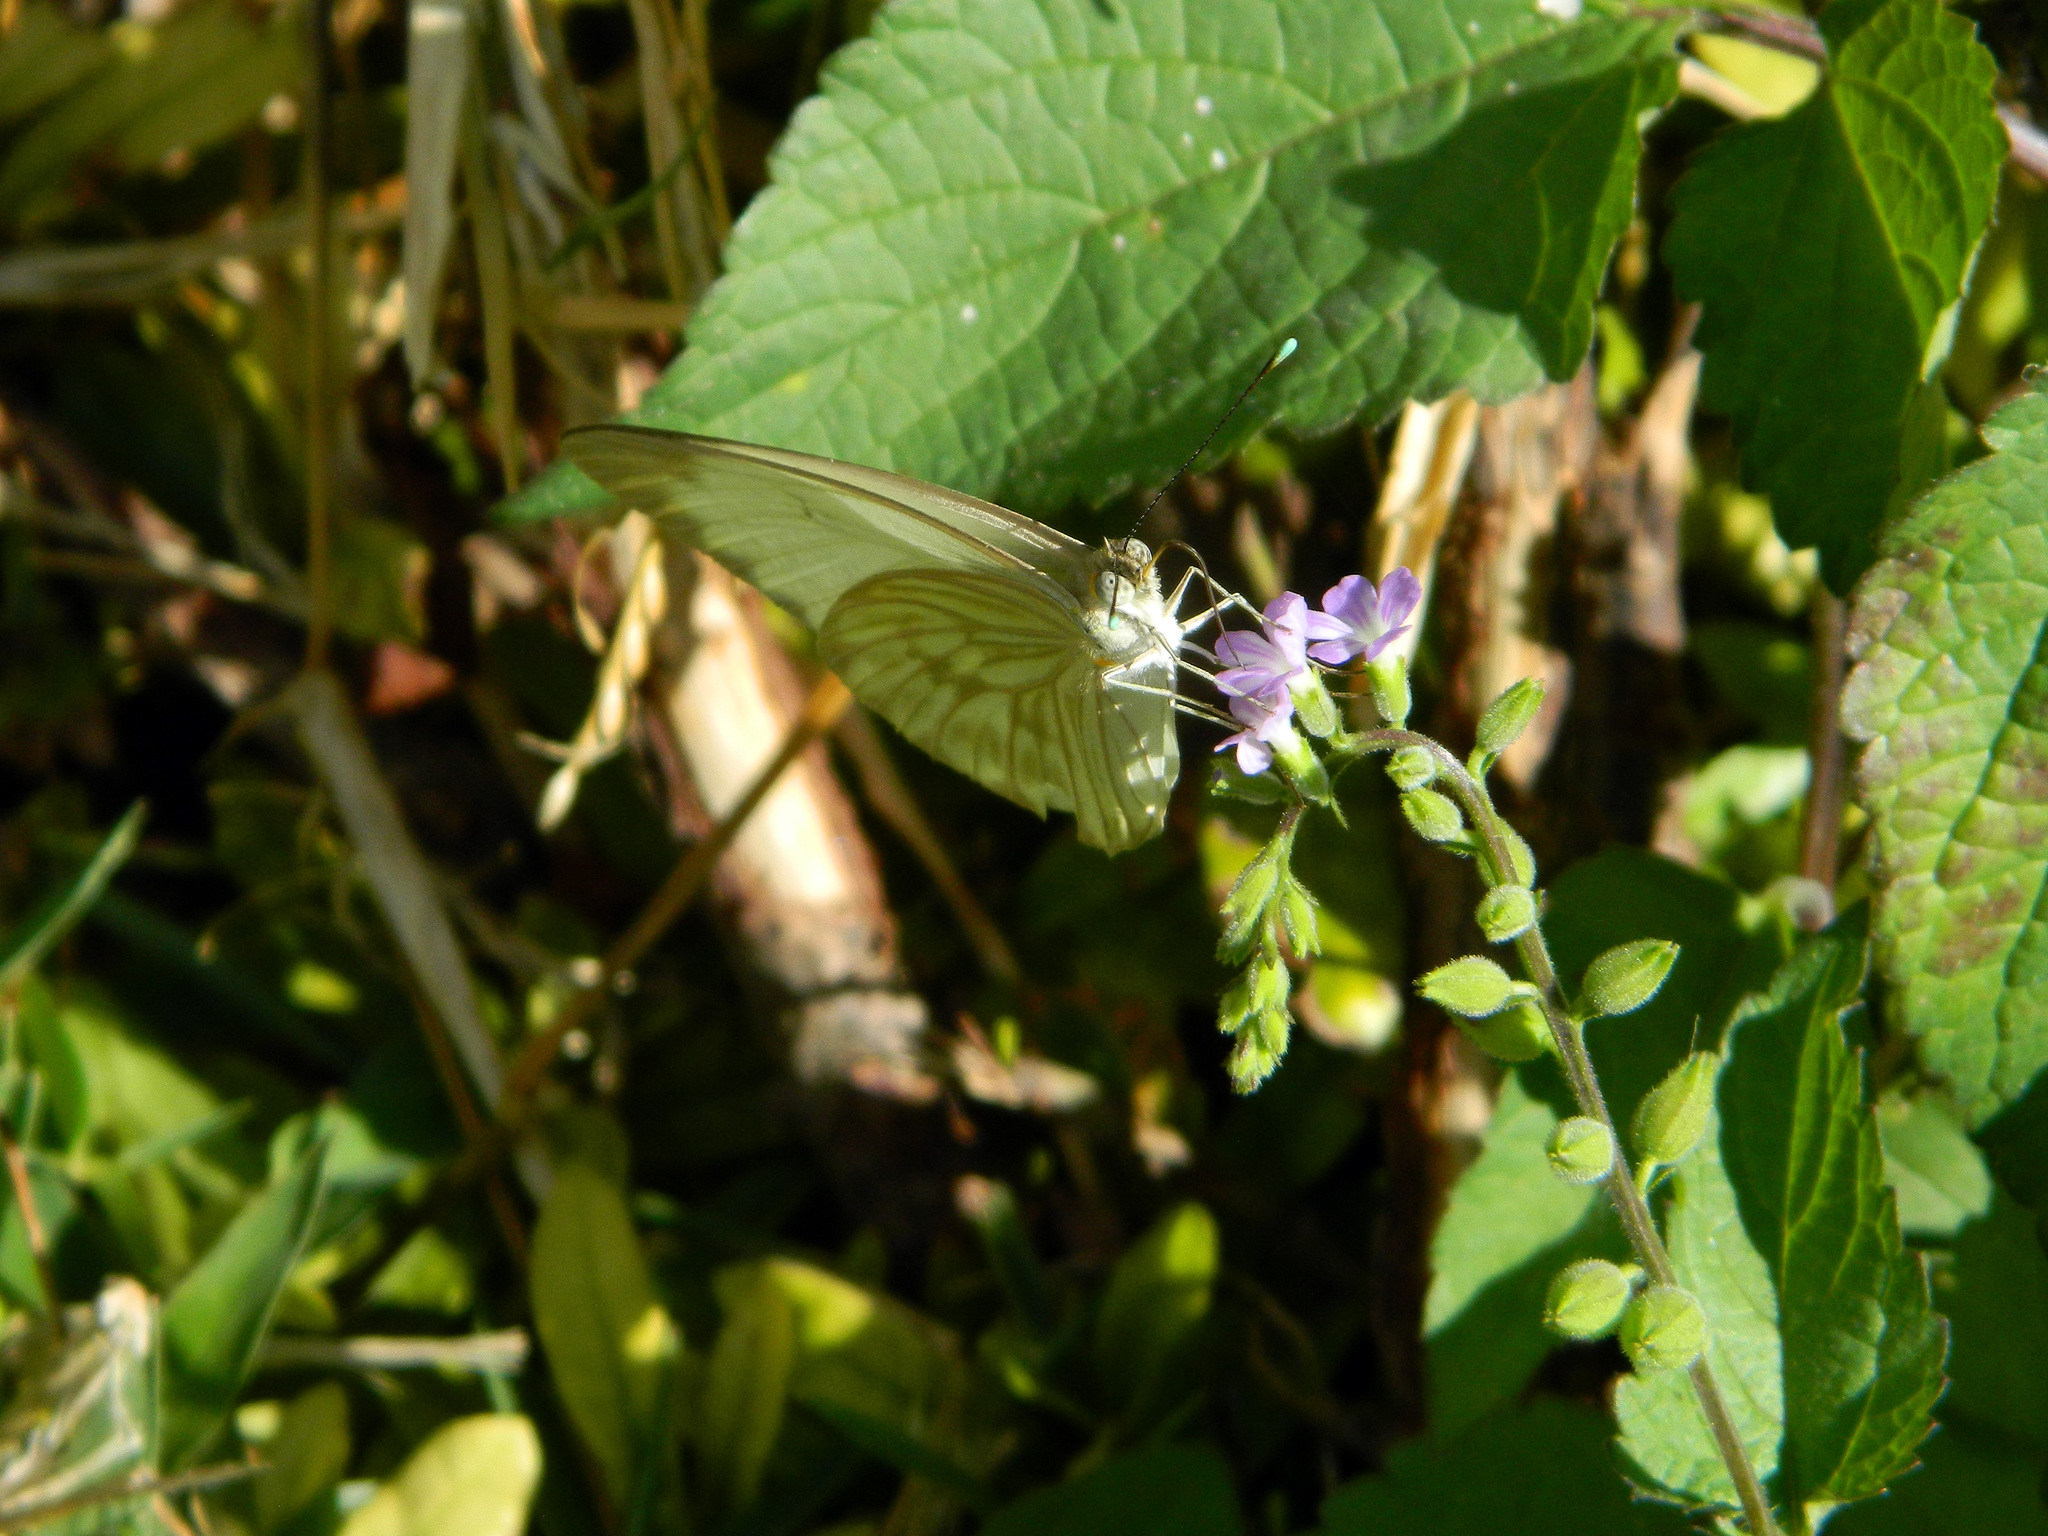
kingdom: Animalia
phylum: Arthropoda
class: Insecta
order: Lepidoptera
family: Pieridae
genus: Ascia
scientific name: Ascia monuste
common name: Great southern white
